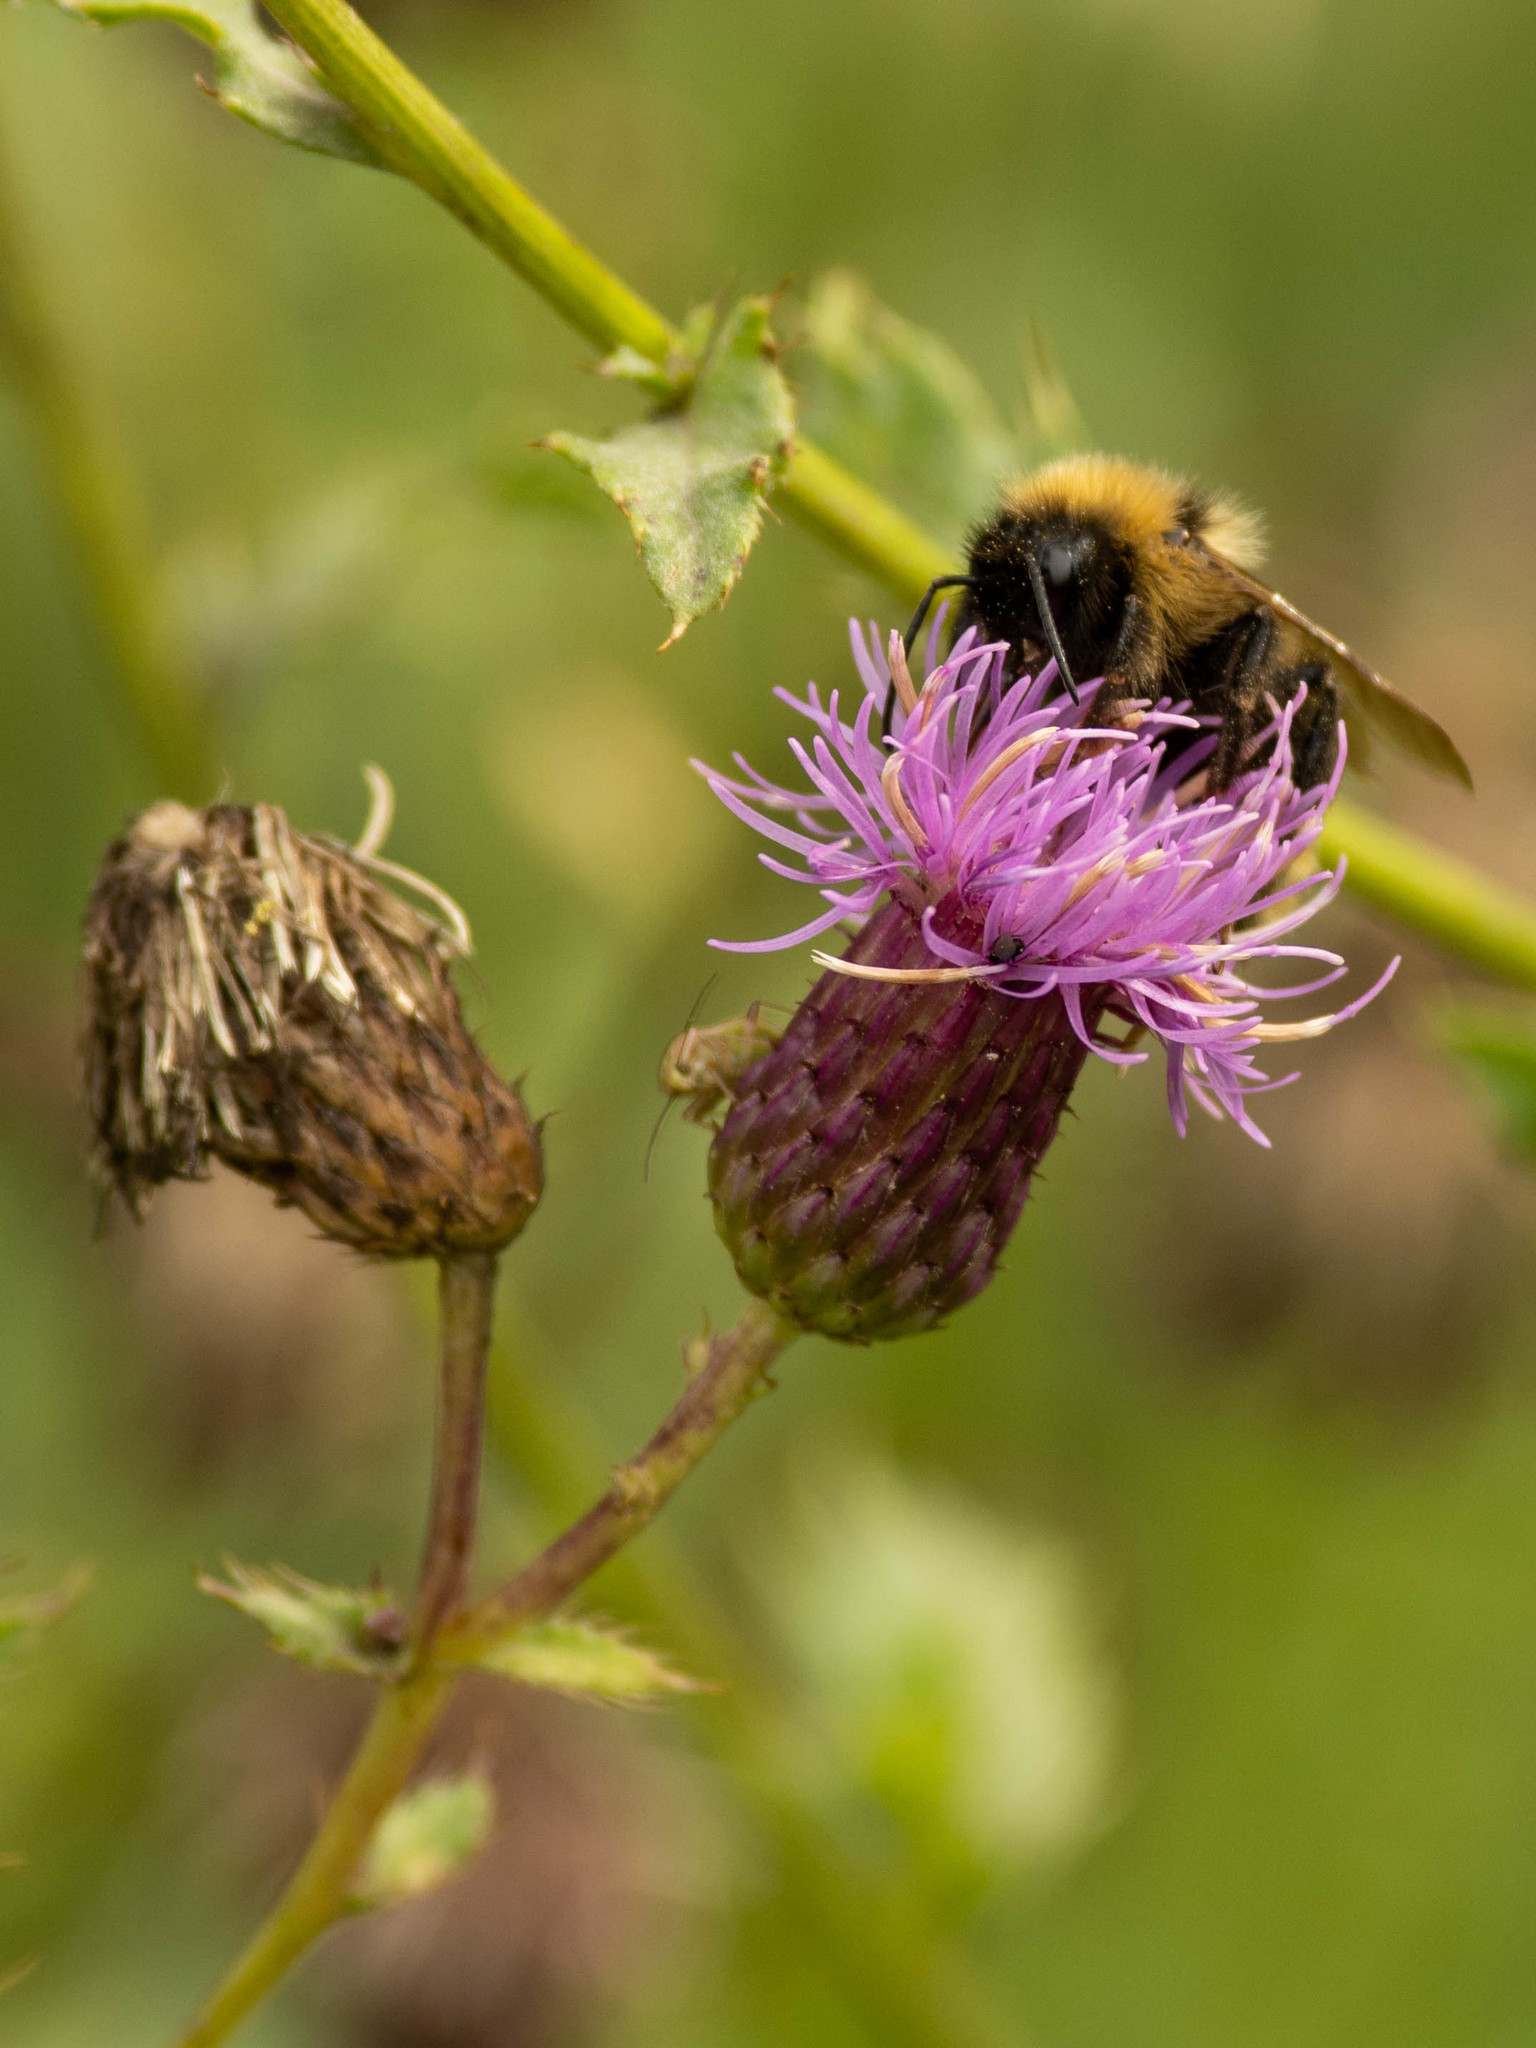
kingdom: Animalia
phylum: Arthropoda
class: Insecta
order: Hymenoptera
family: Apidae
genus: Bombus
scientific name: Bombus suckleyi
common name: Suckley cuckoo bumble bee
